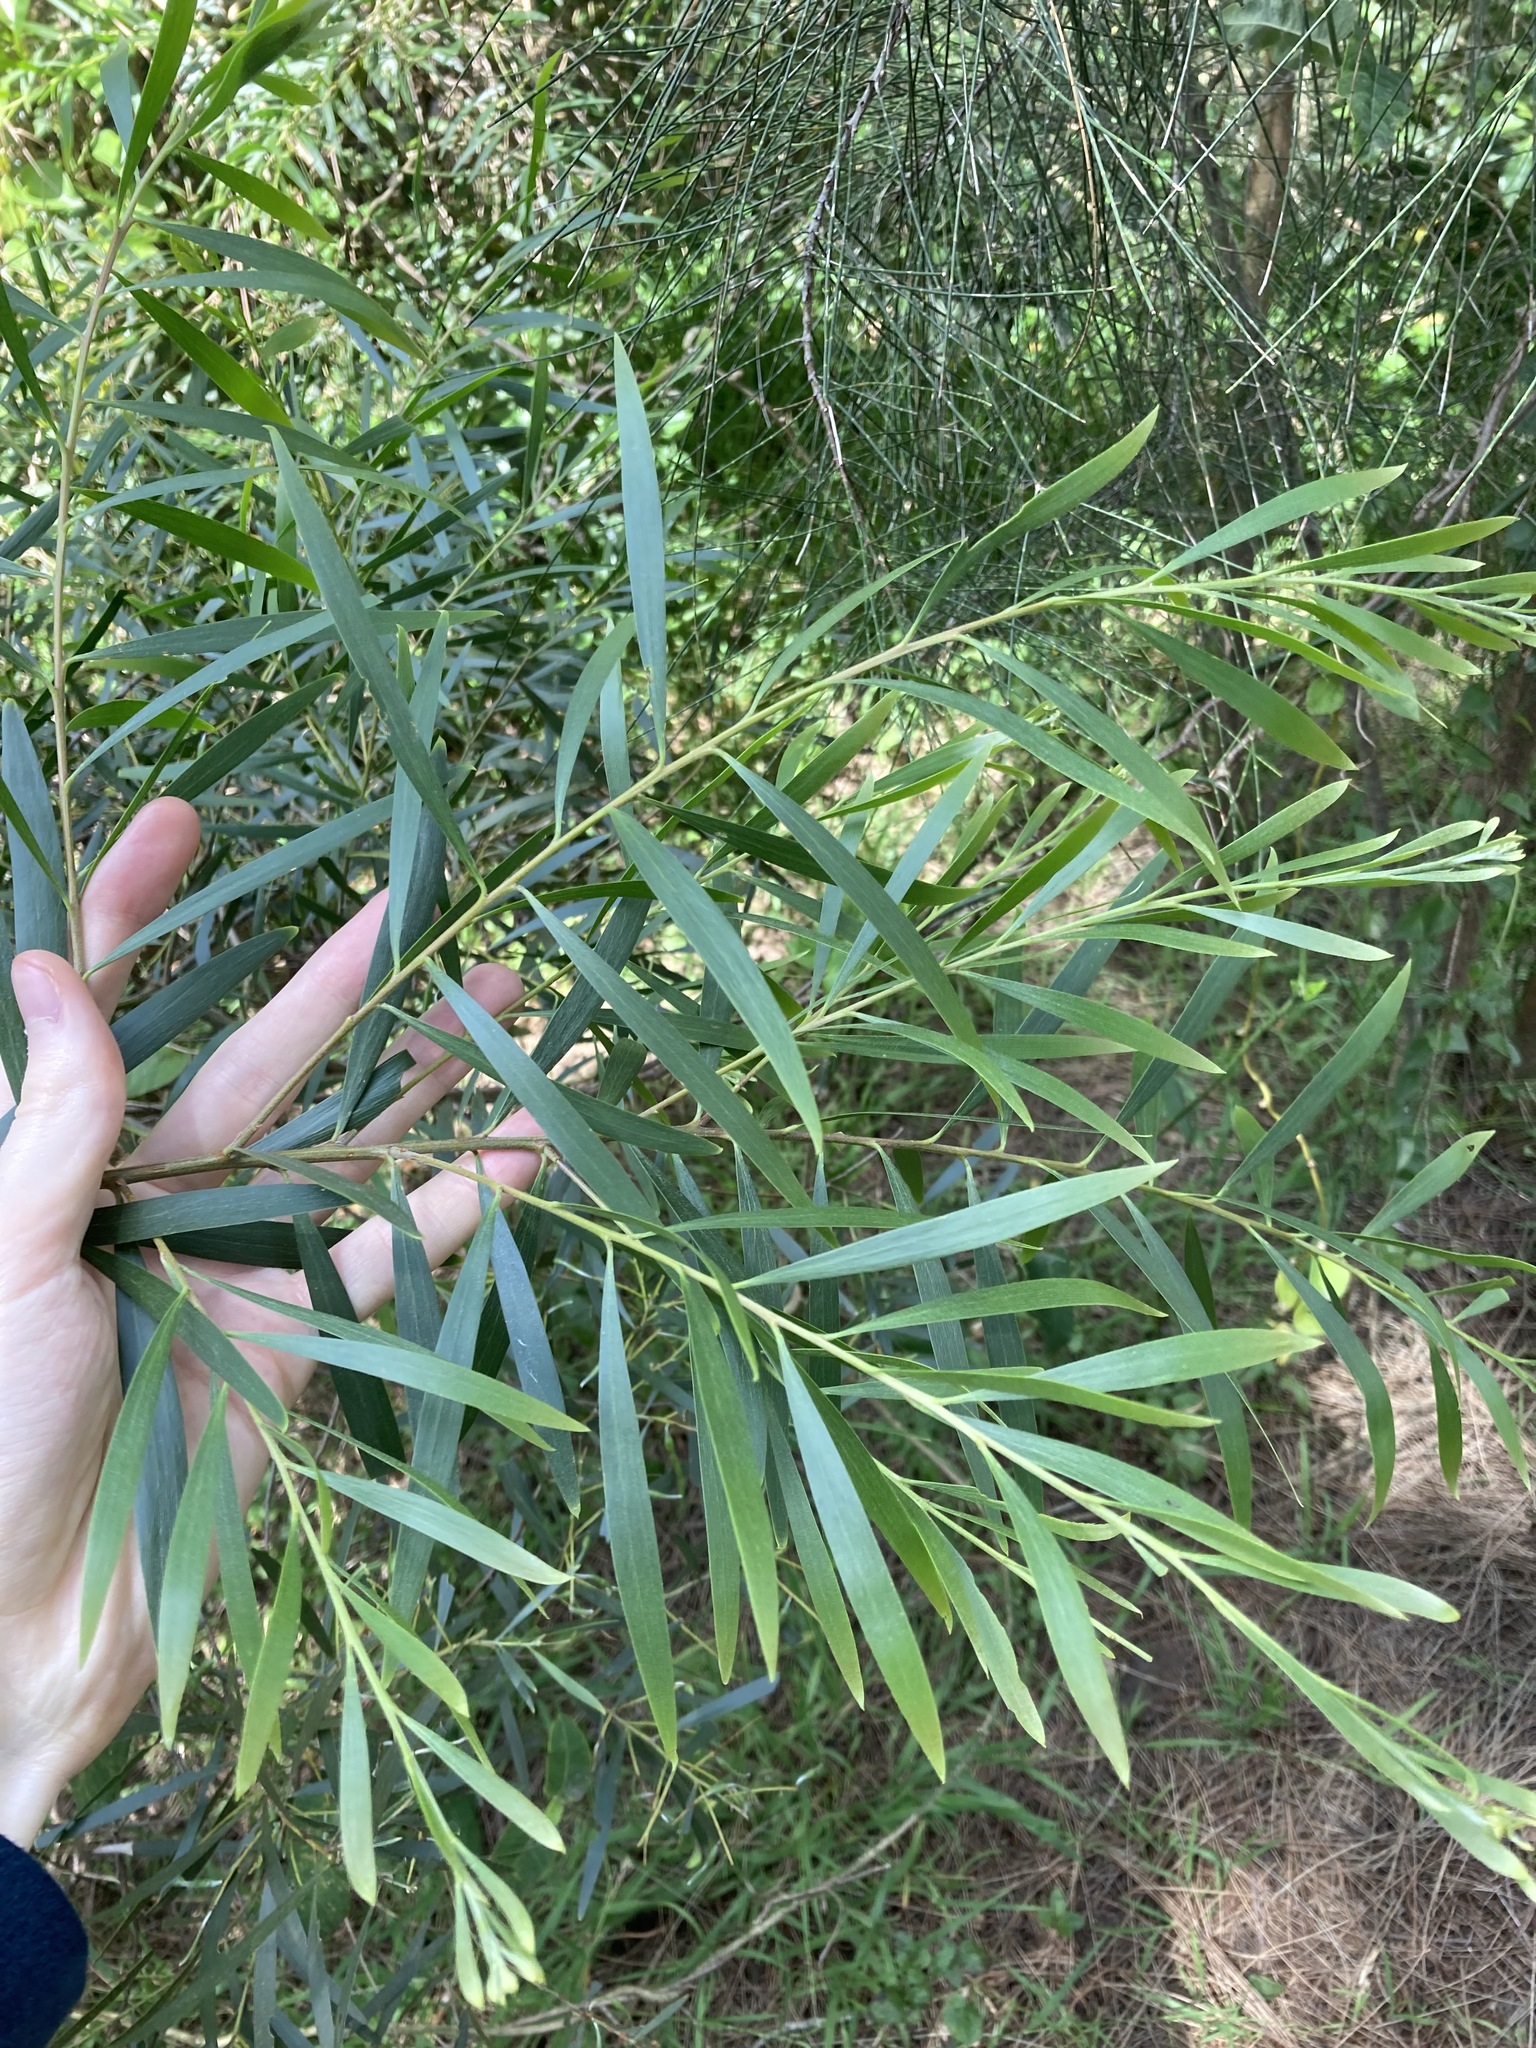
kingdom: Plantae
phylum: Tracheophyta
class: Magnoliopsida
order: Fabales
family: Fabaceae
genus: Acacia
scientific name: Acacia longifolia
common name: Sydney golden wattle
